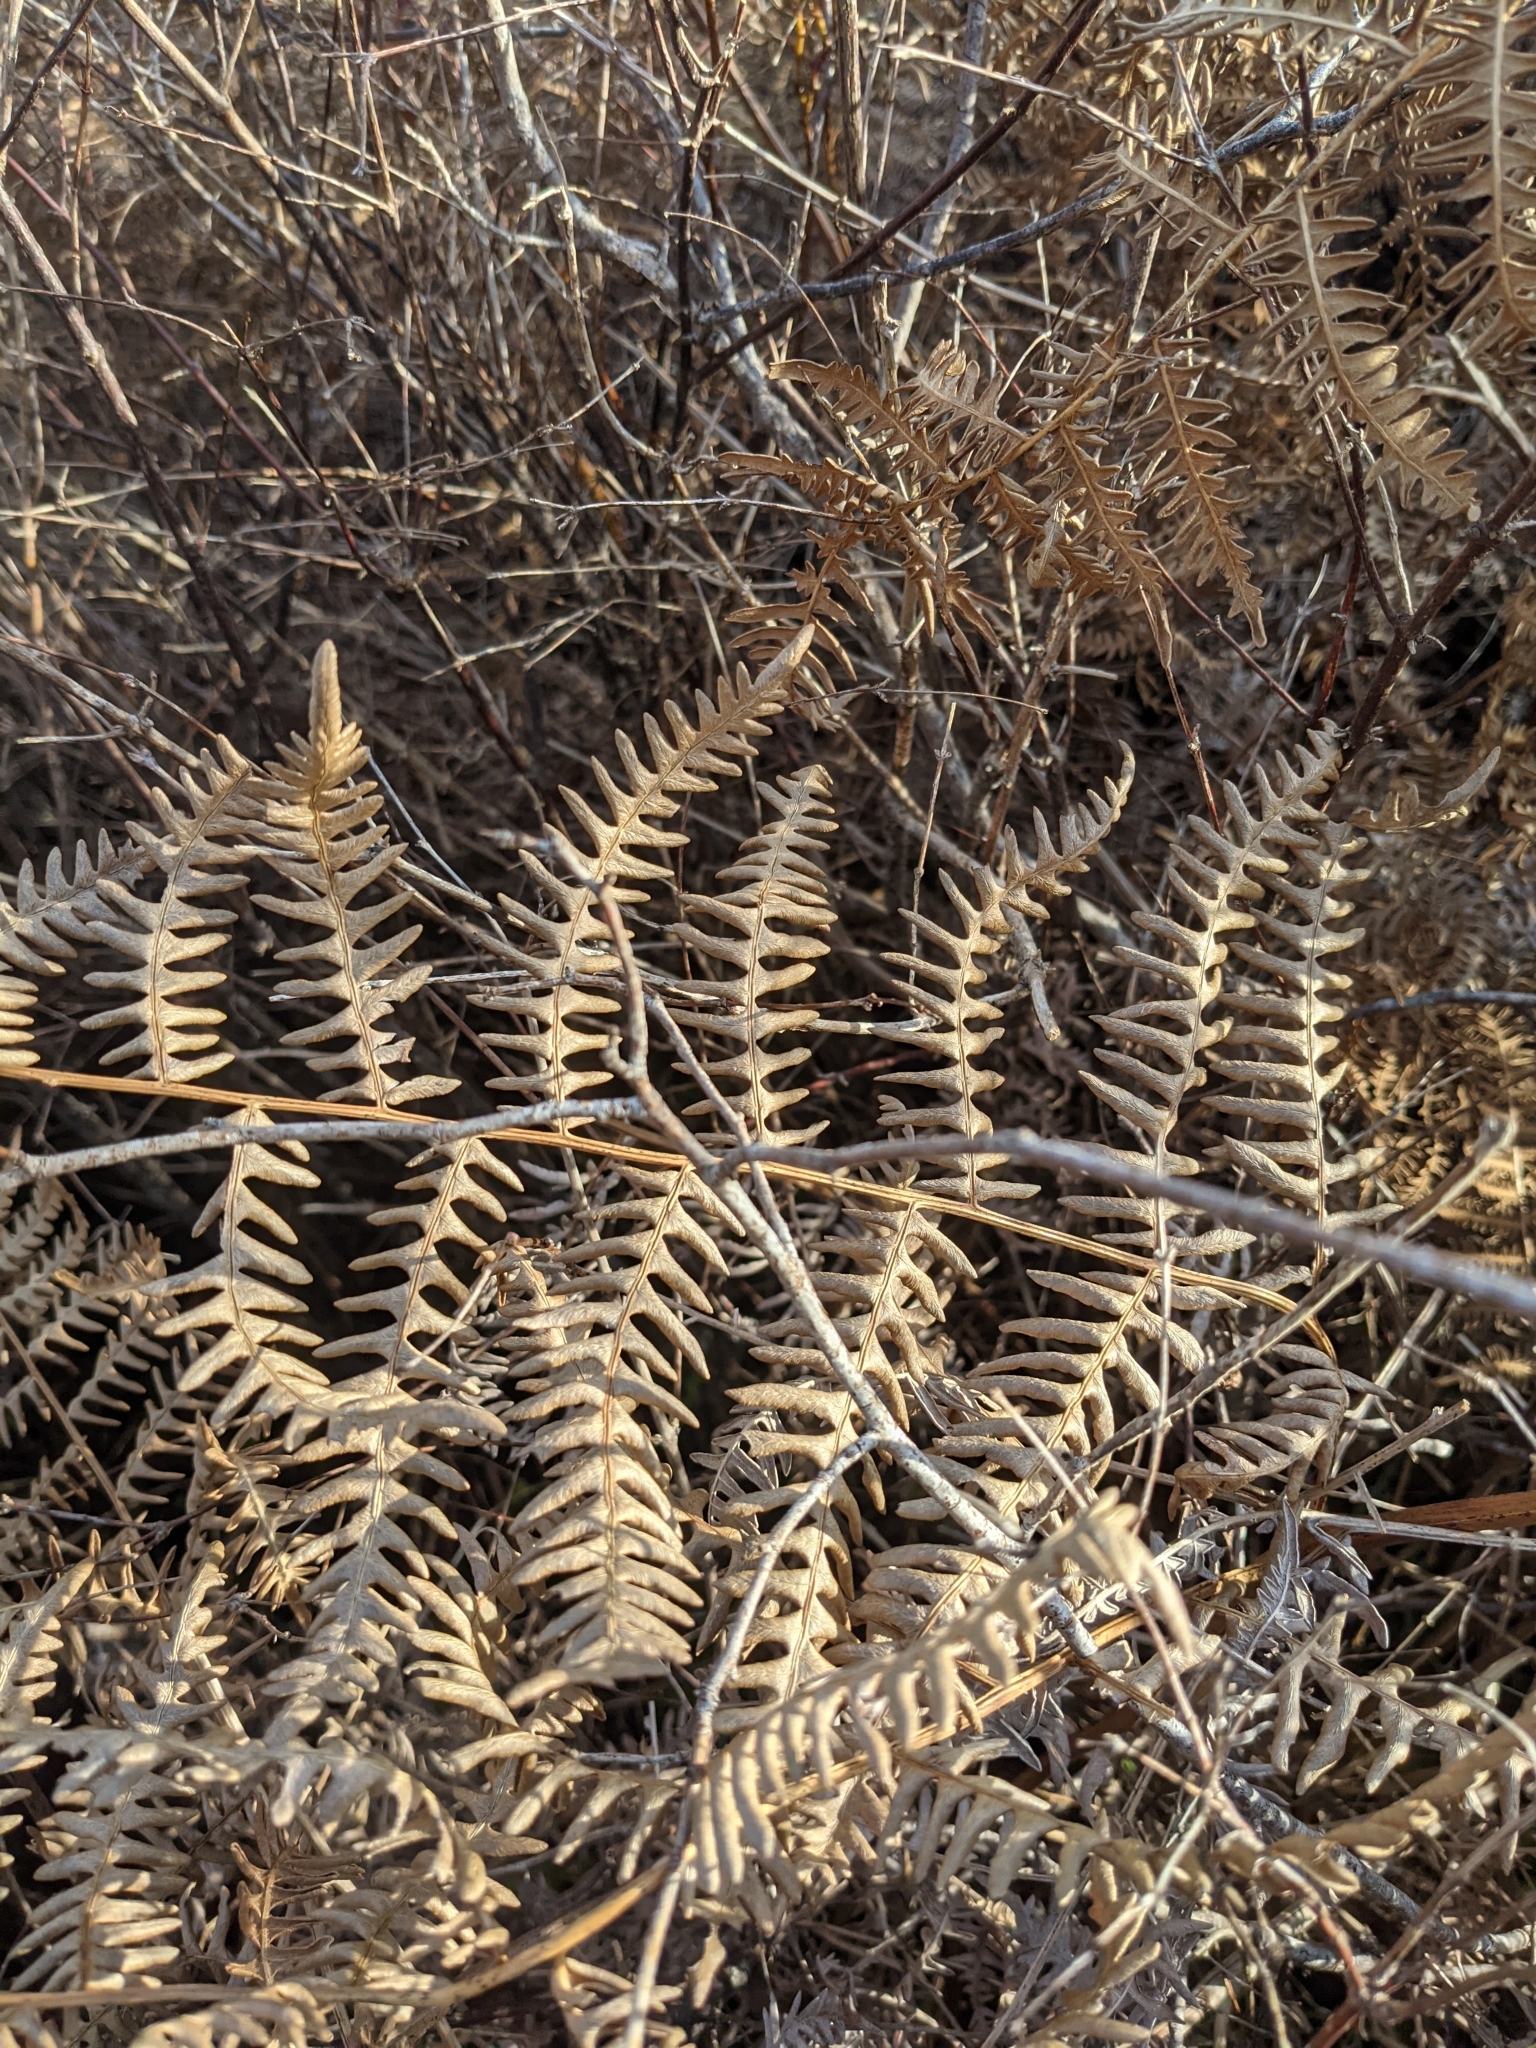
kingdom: Plantae
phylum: Tracheophyta
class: Polypodiopsida
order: Polypodiales
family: Dennstaedtiaceae
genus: Pteridium
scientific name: Pteridium aquilinum
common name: Bracken
